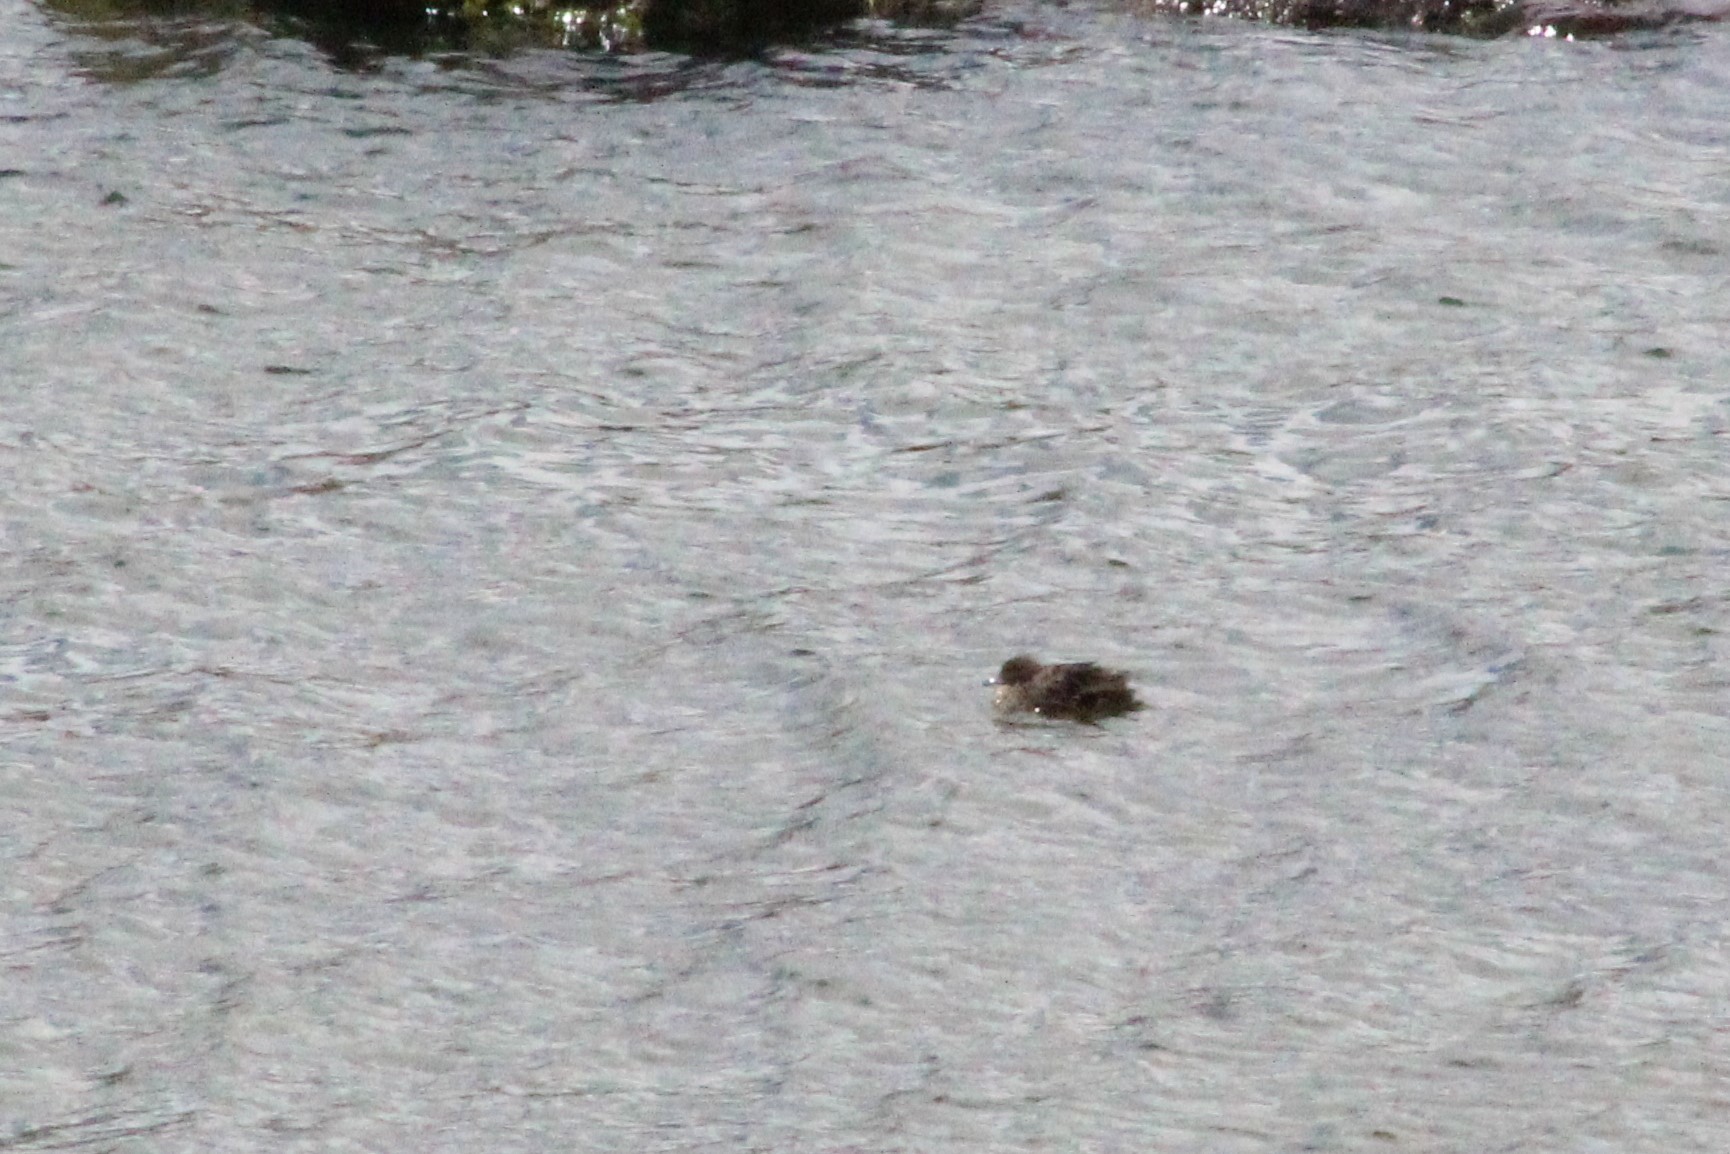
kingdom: Animalia
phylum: Chordata
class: Aves
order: Anseriformes
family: Anatidae
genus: Anas
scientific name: Anas andium
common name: Andean teal
